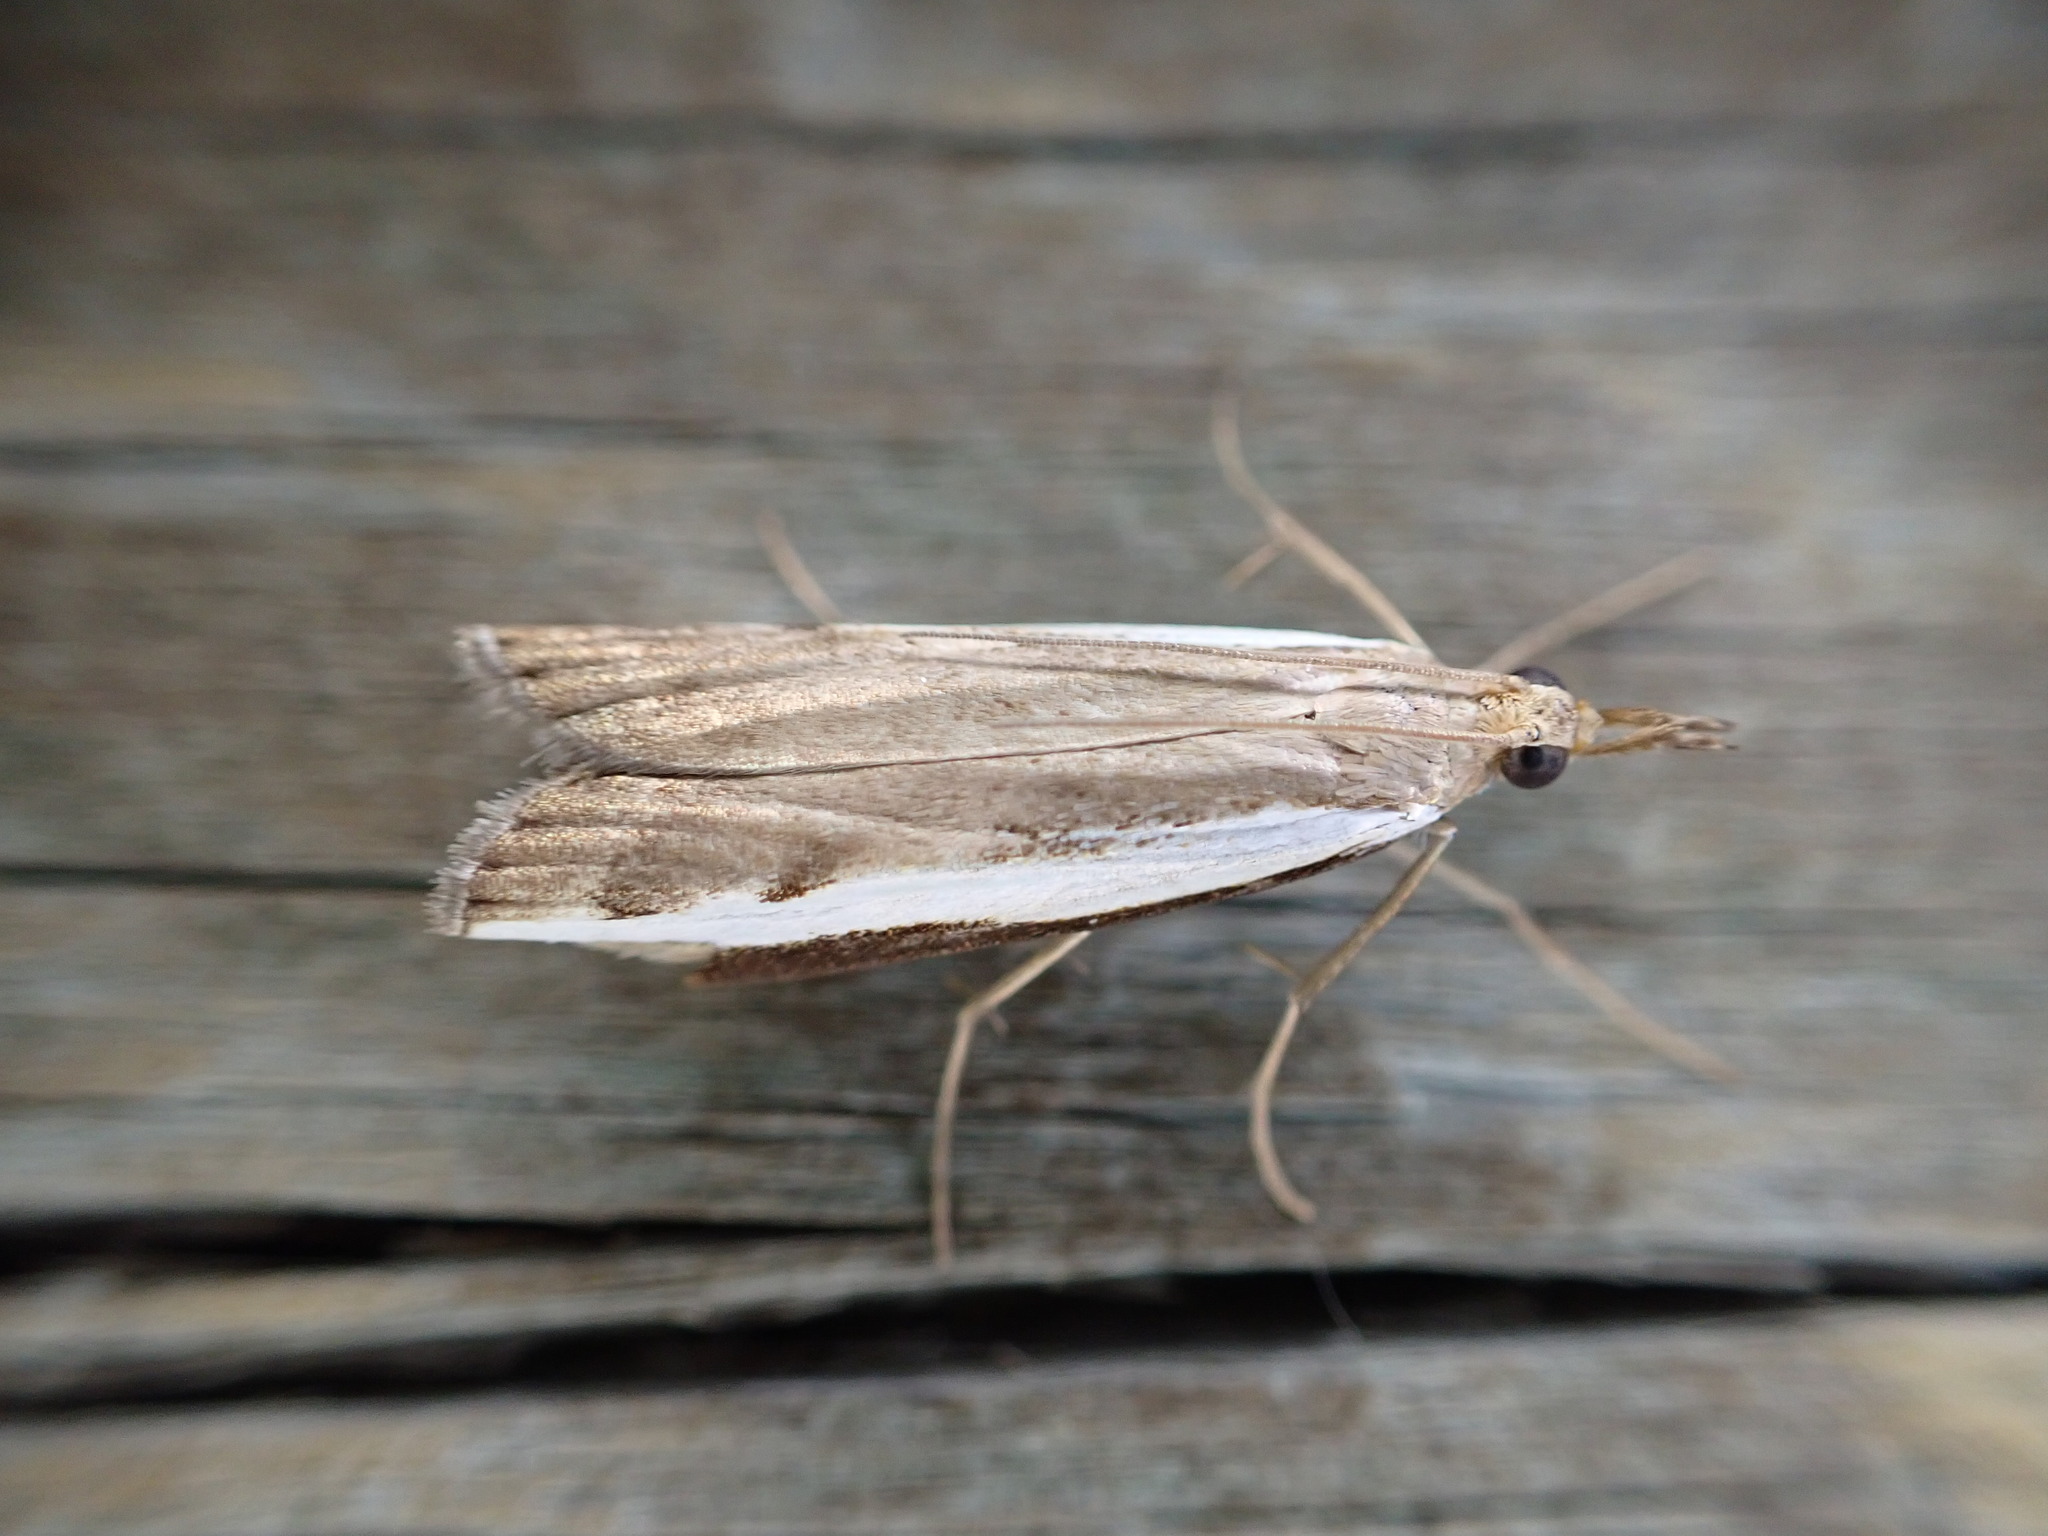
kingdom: Animalia
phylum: Arthropoda
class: Insecta
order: Lepidoptera
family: Crambidae
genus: Orocrambus
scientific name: Orocrambus flexuosellus
